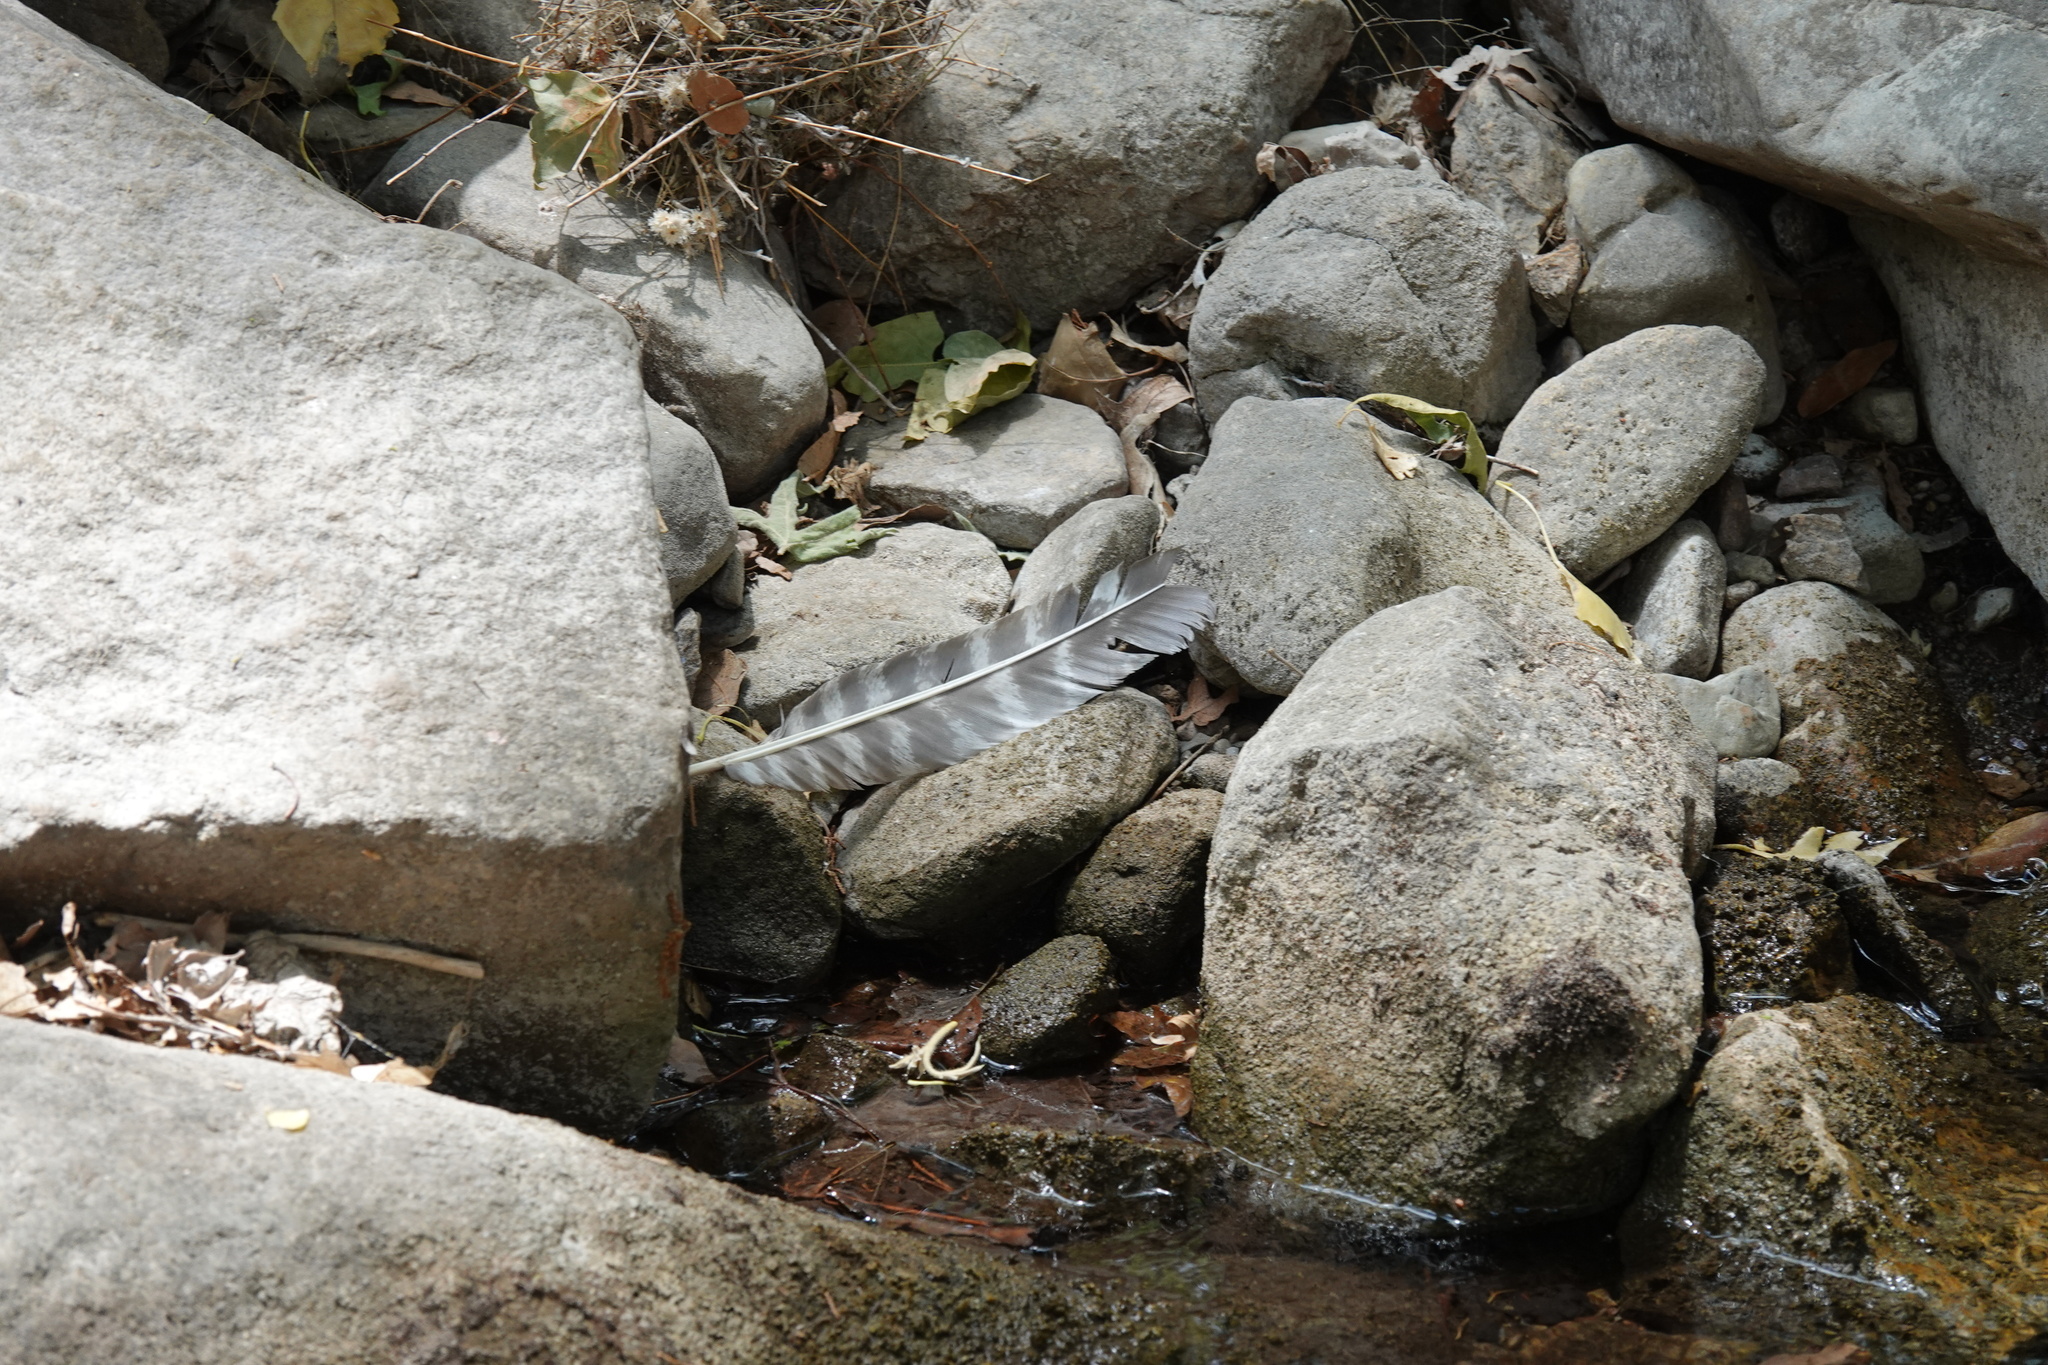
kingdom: Animalia
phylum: Chordata
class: Aves
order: Galliformes
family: Phasianidae
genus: Meleagris
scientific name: Meleagris gallopavo
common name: Wild turkey
